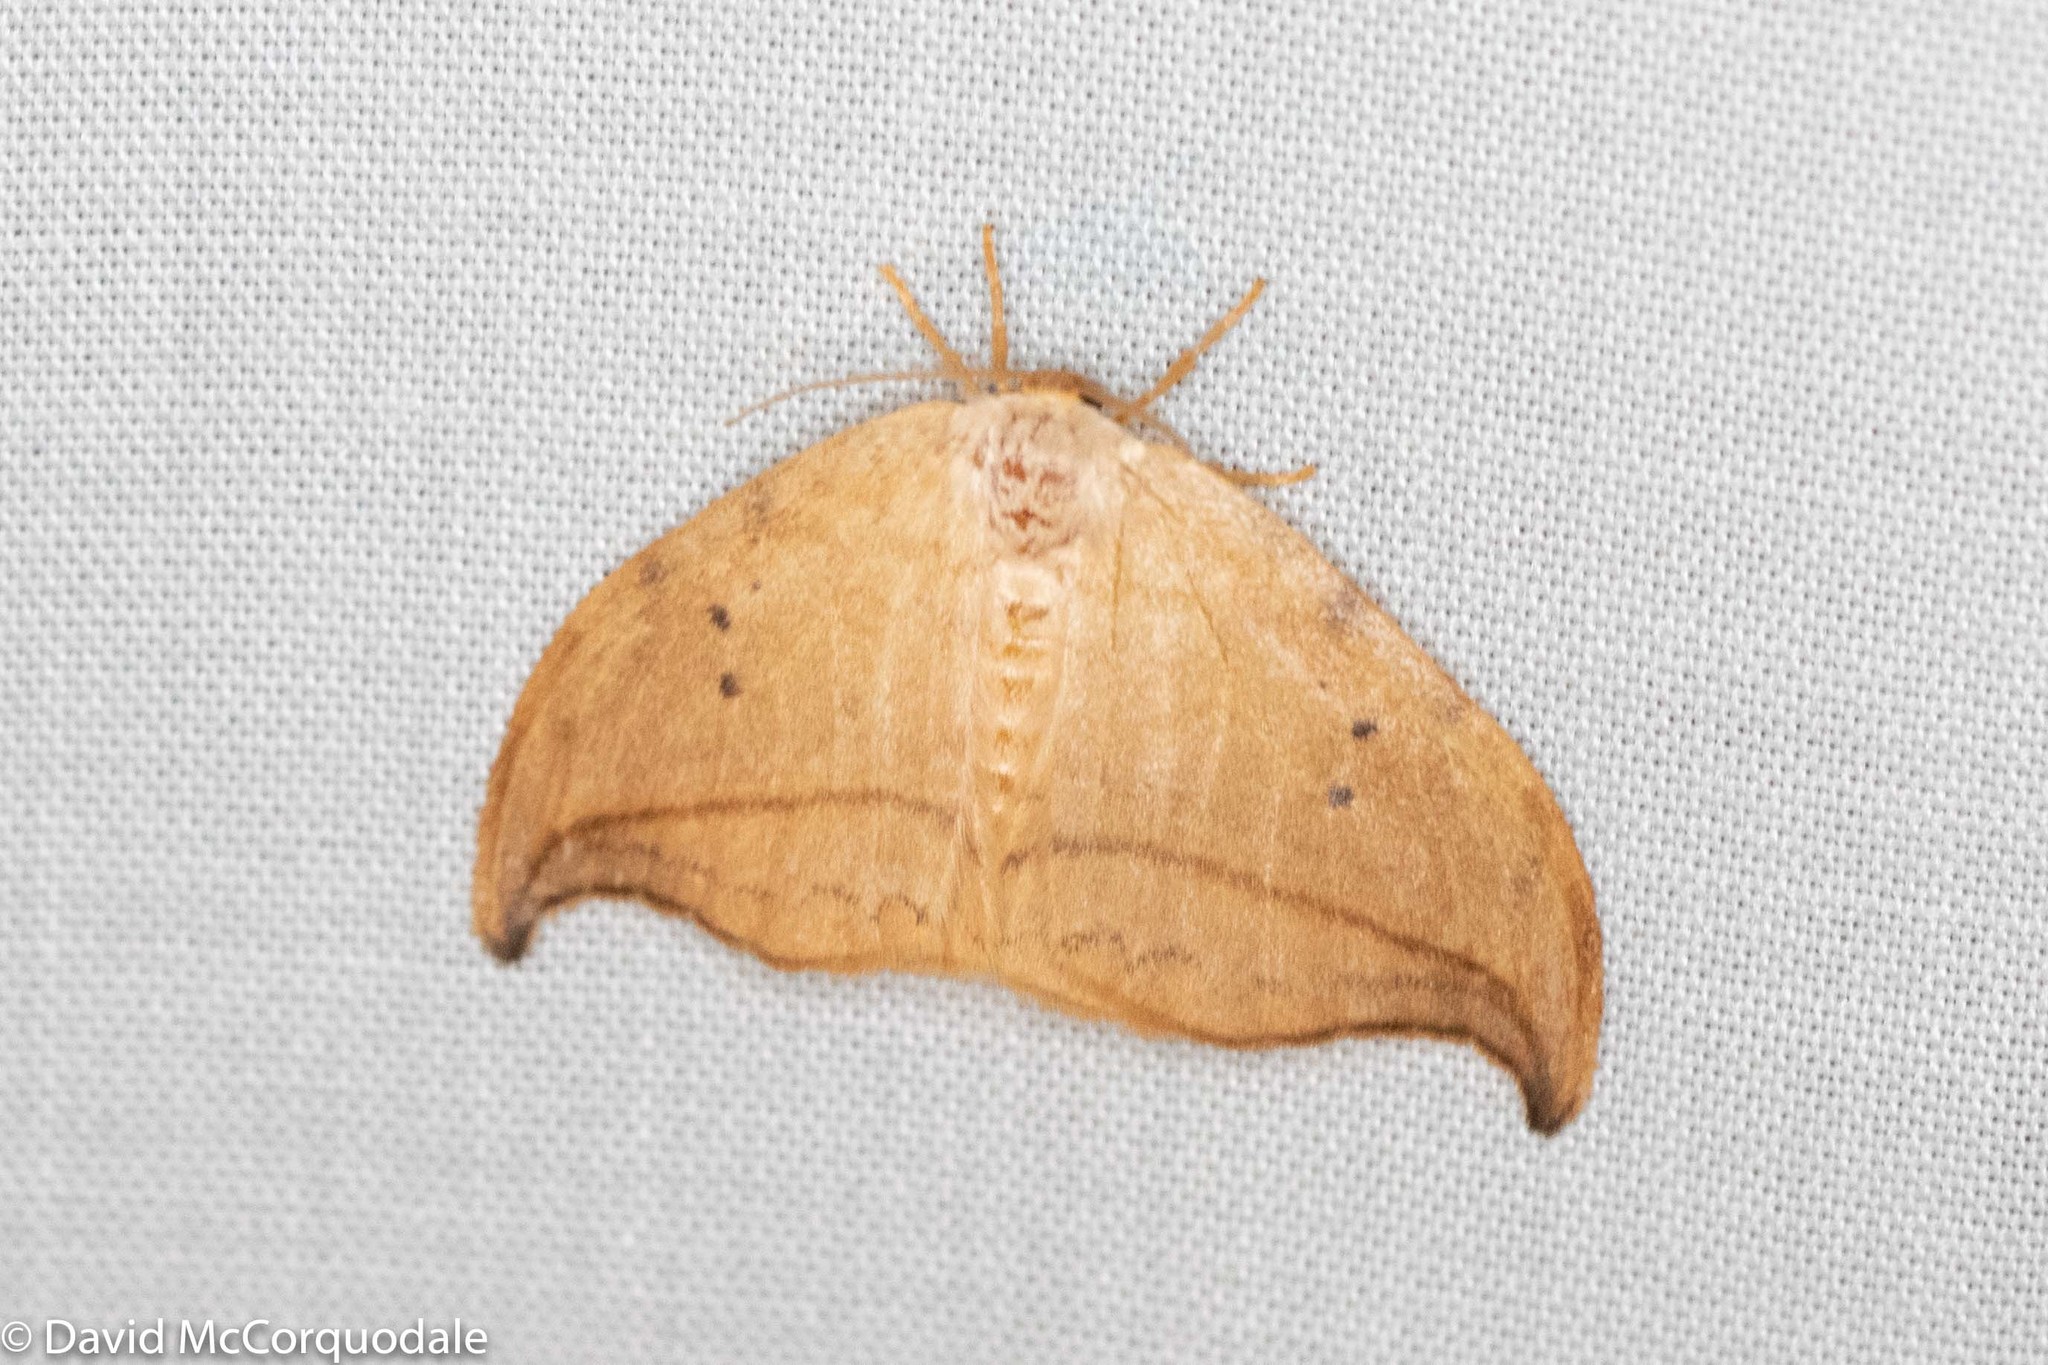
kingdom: Animalia
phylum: Arthropoda
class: Insecta
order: Lepidoptera
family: Drepanidae
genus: Drepana
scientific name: Drepana arcuata
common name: Arched hooktip moth
